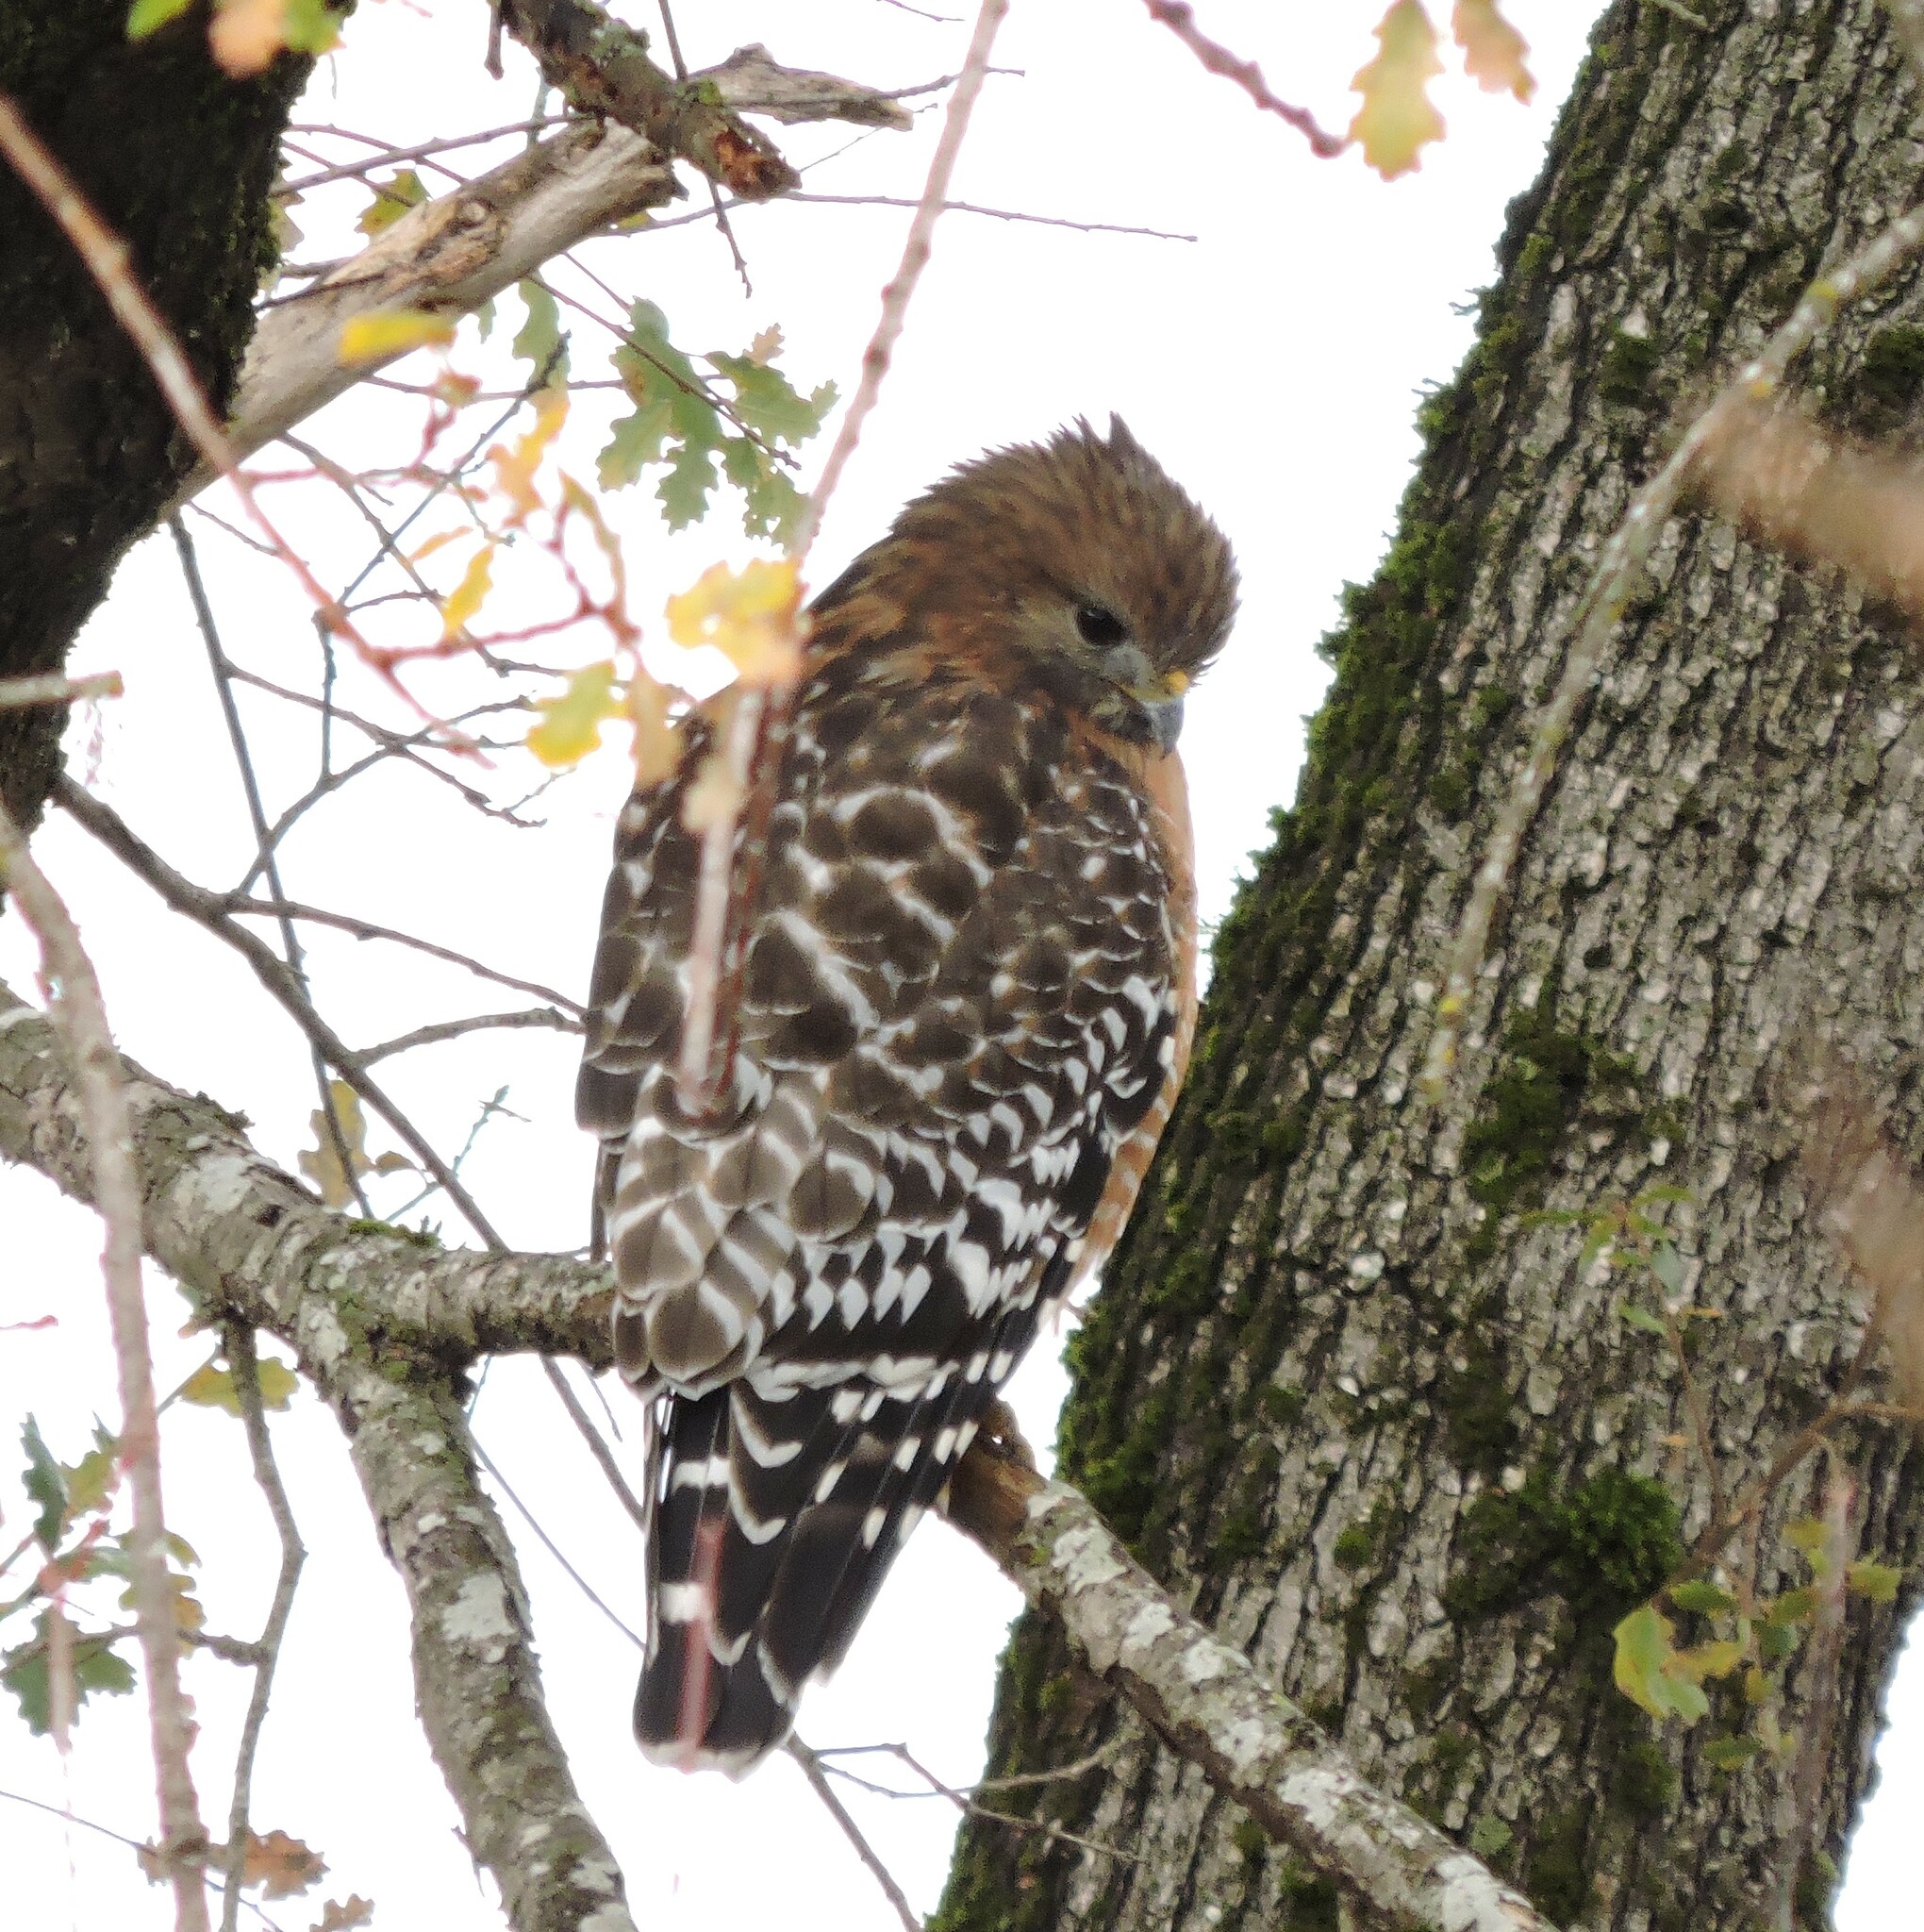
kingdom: Animalia
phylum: Chordata
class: Aves
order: Accipitriformes
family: Accipitridae
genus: Buteo
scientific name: Buteo lineatus
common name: Red-shouldered hawk
